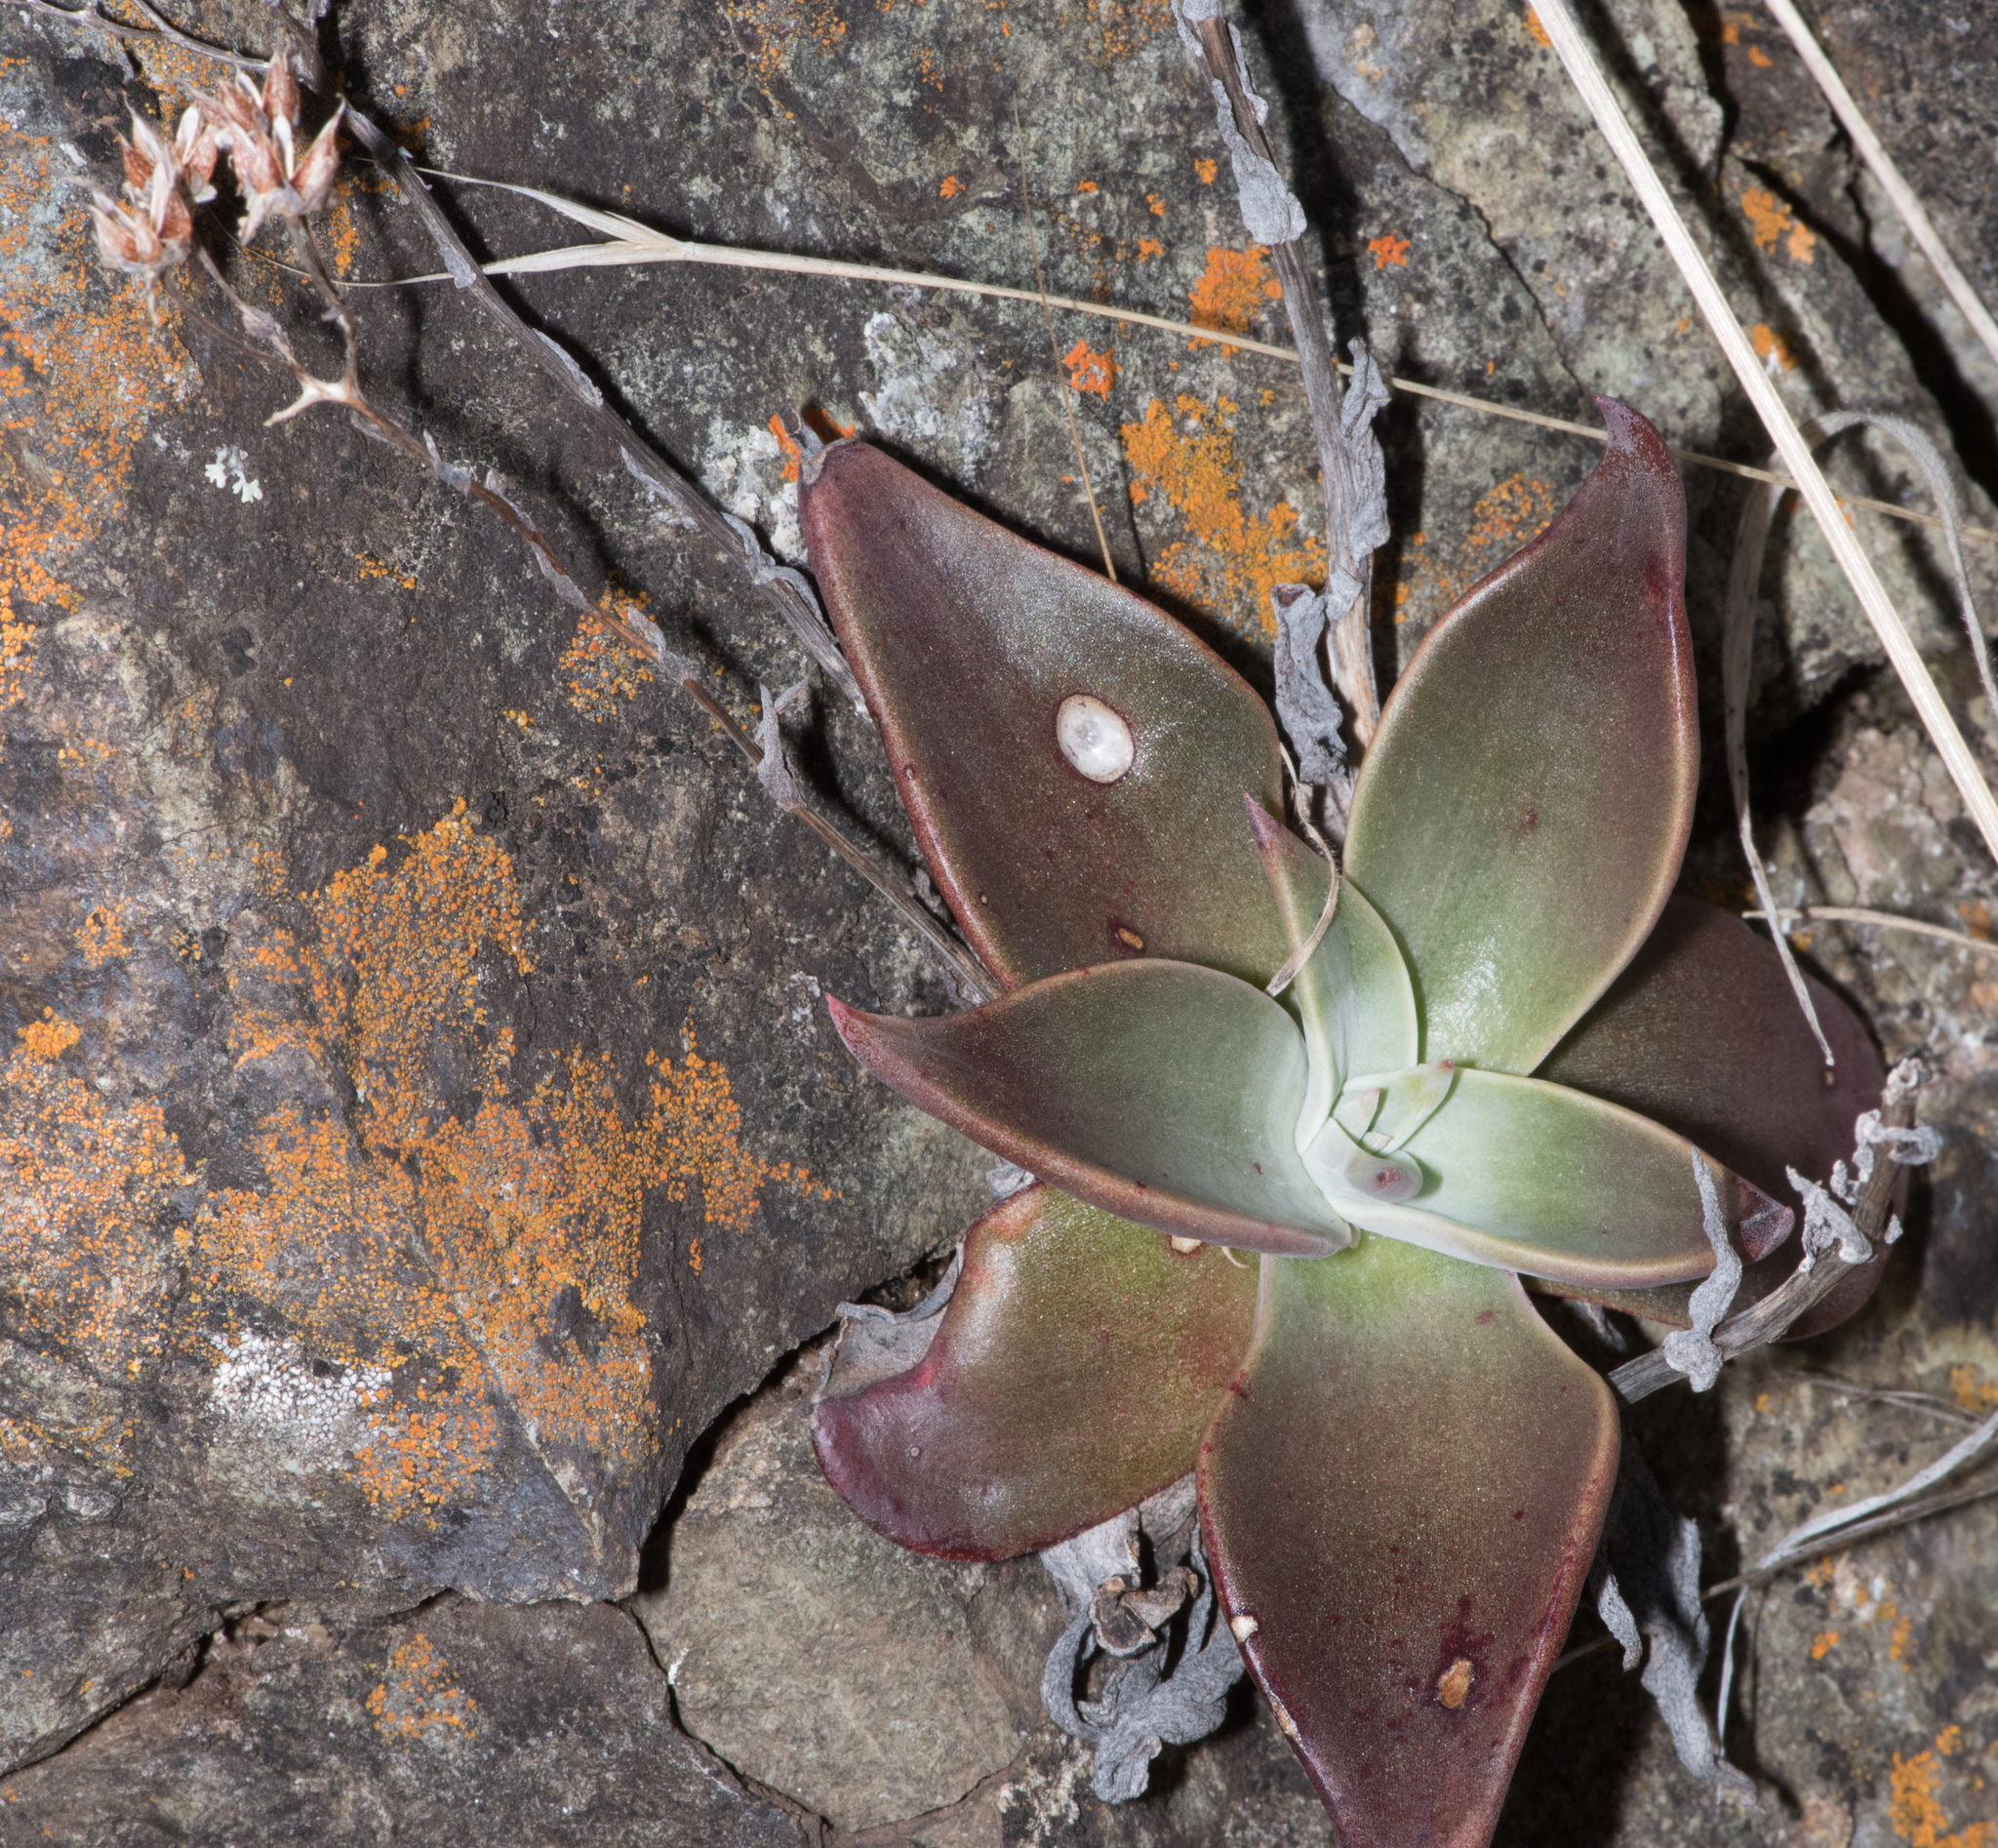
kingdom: Plantae
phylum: Tracheophyta
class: Magnoliopsida
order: Saxifragales
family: Crassulaceae
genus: Dudleya
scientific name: Dudleya cymosa
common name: Canyon dudleya
